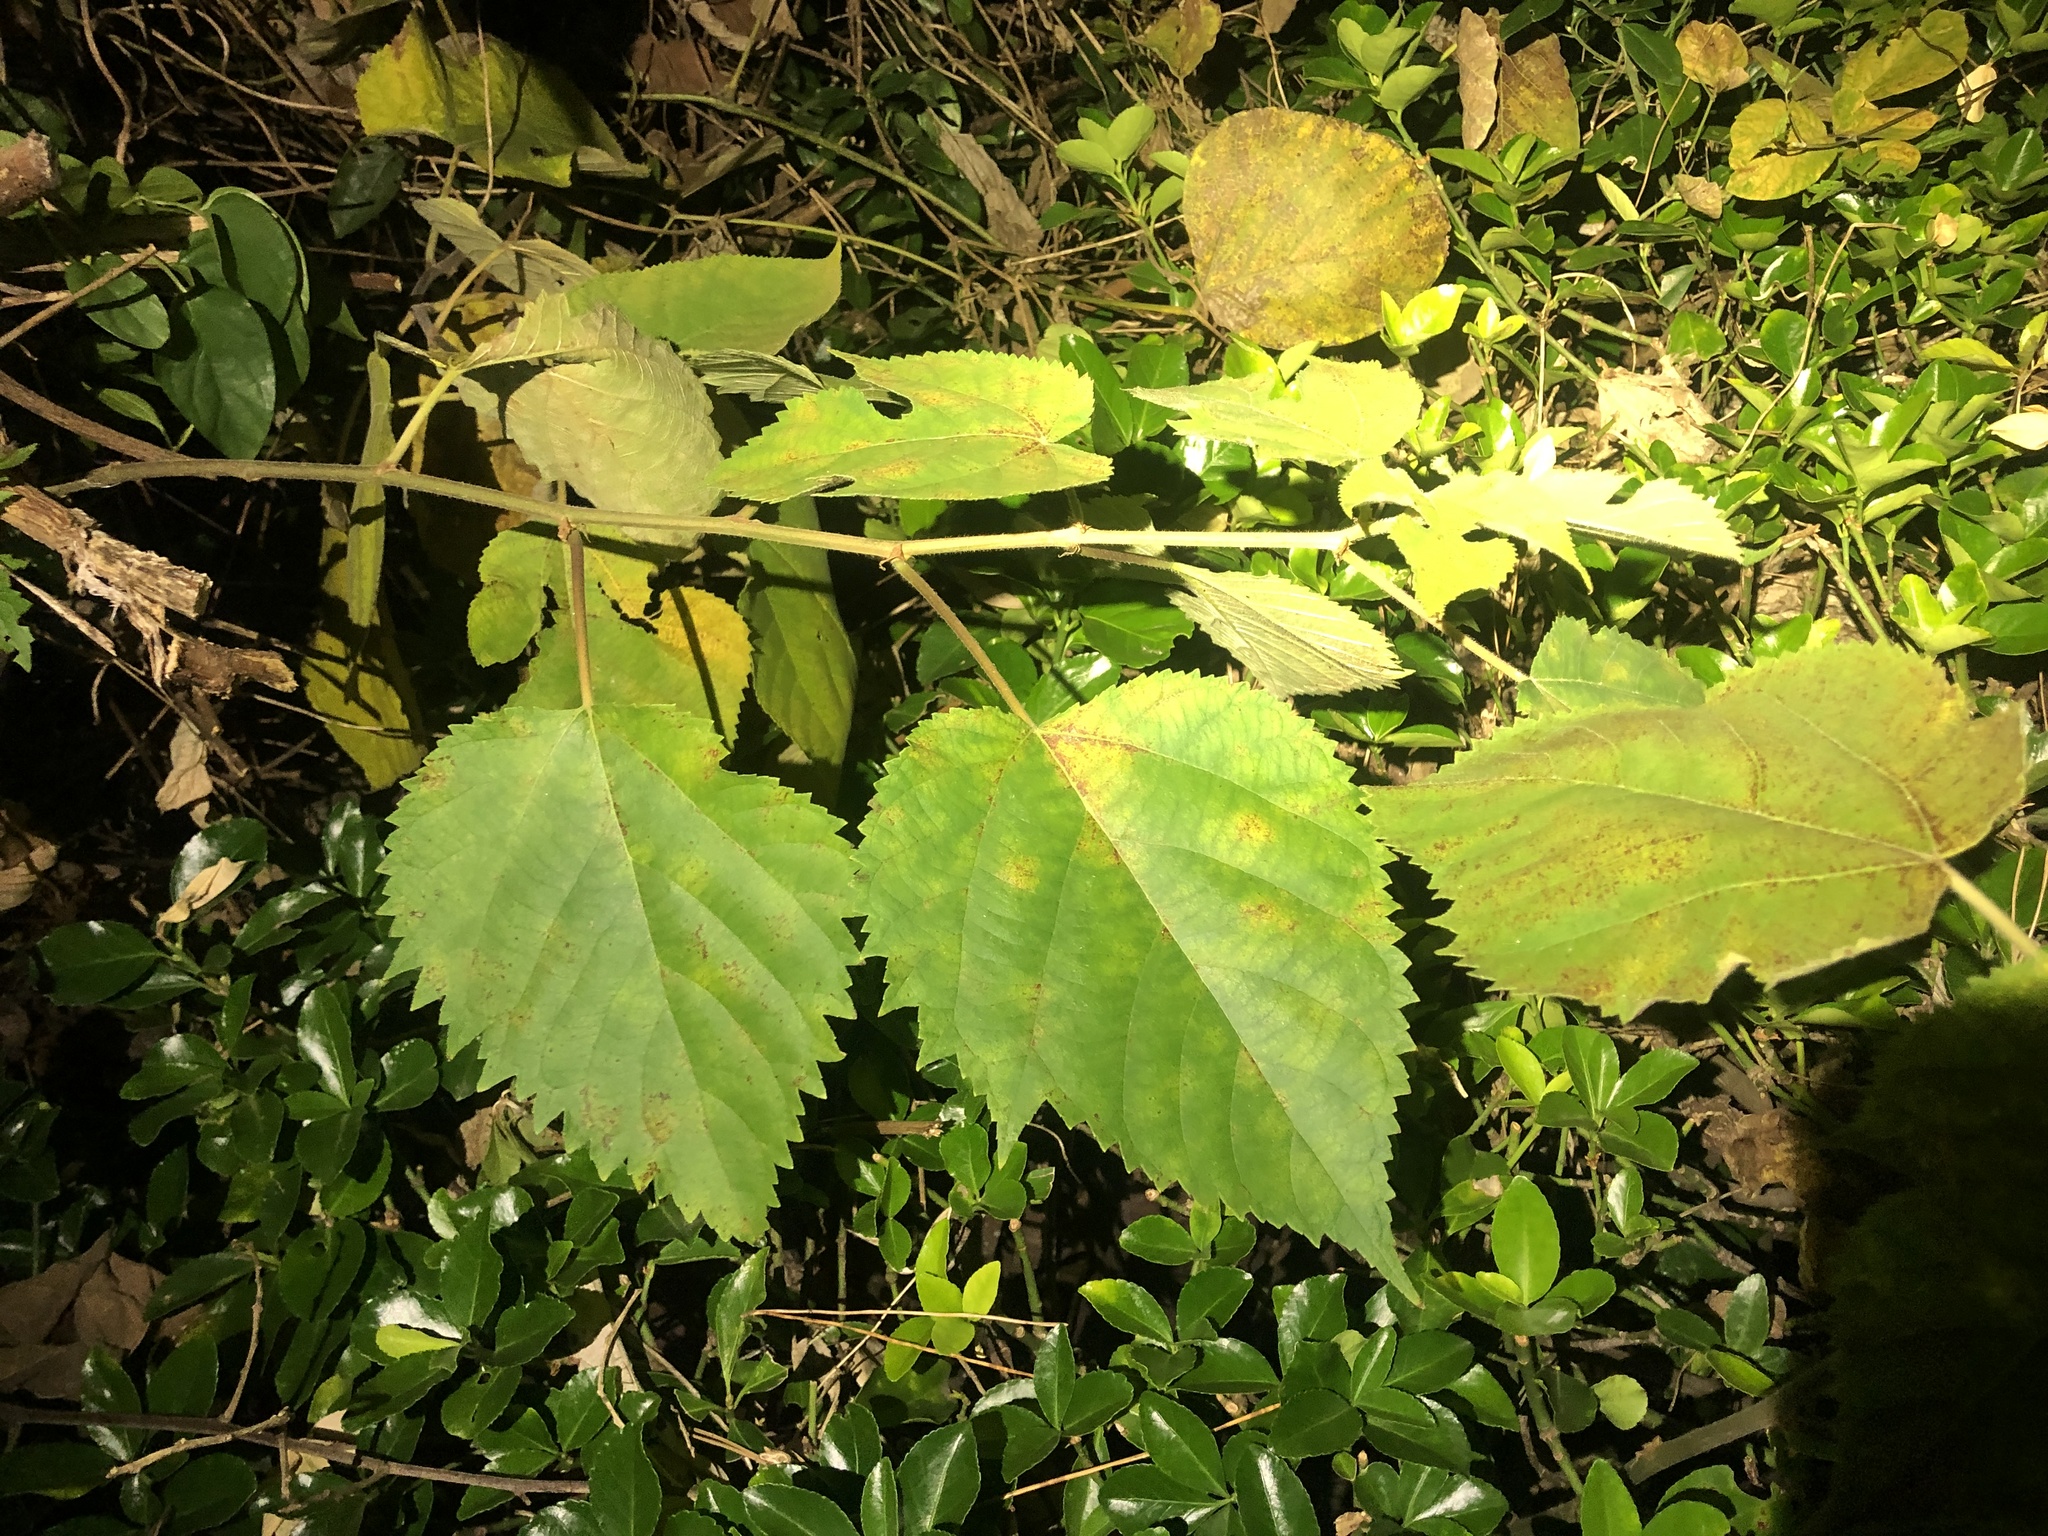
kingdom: Plantae
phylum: Tracheophyta
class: Magnoliopsida
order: Rosales
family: Moraceae
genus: Broussonetia
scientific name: Broussonetia papyrifera
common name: Paper mulberry
